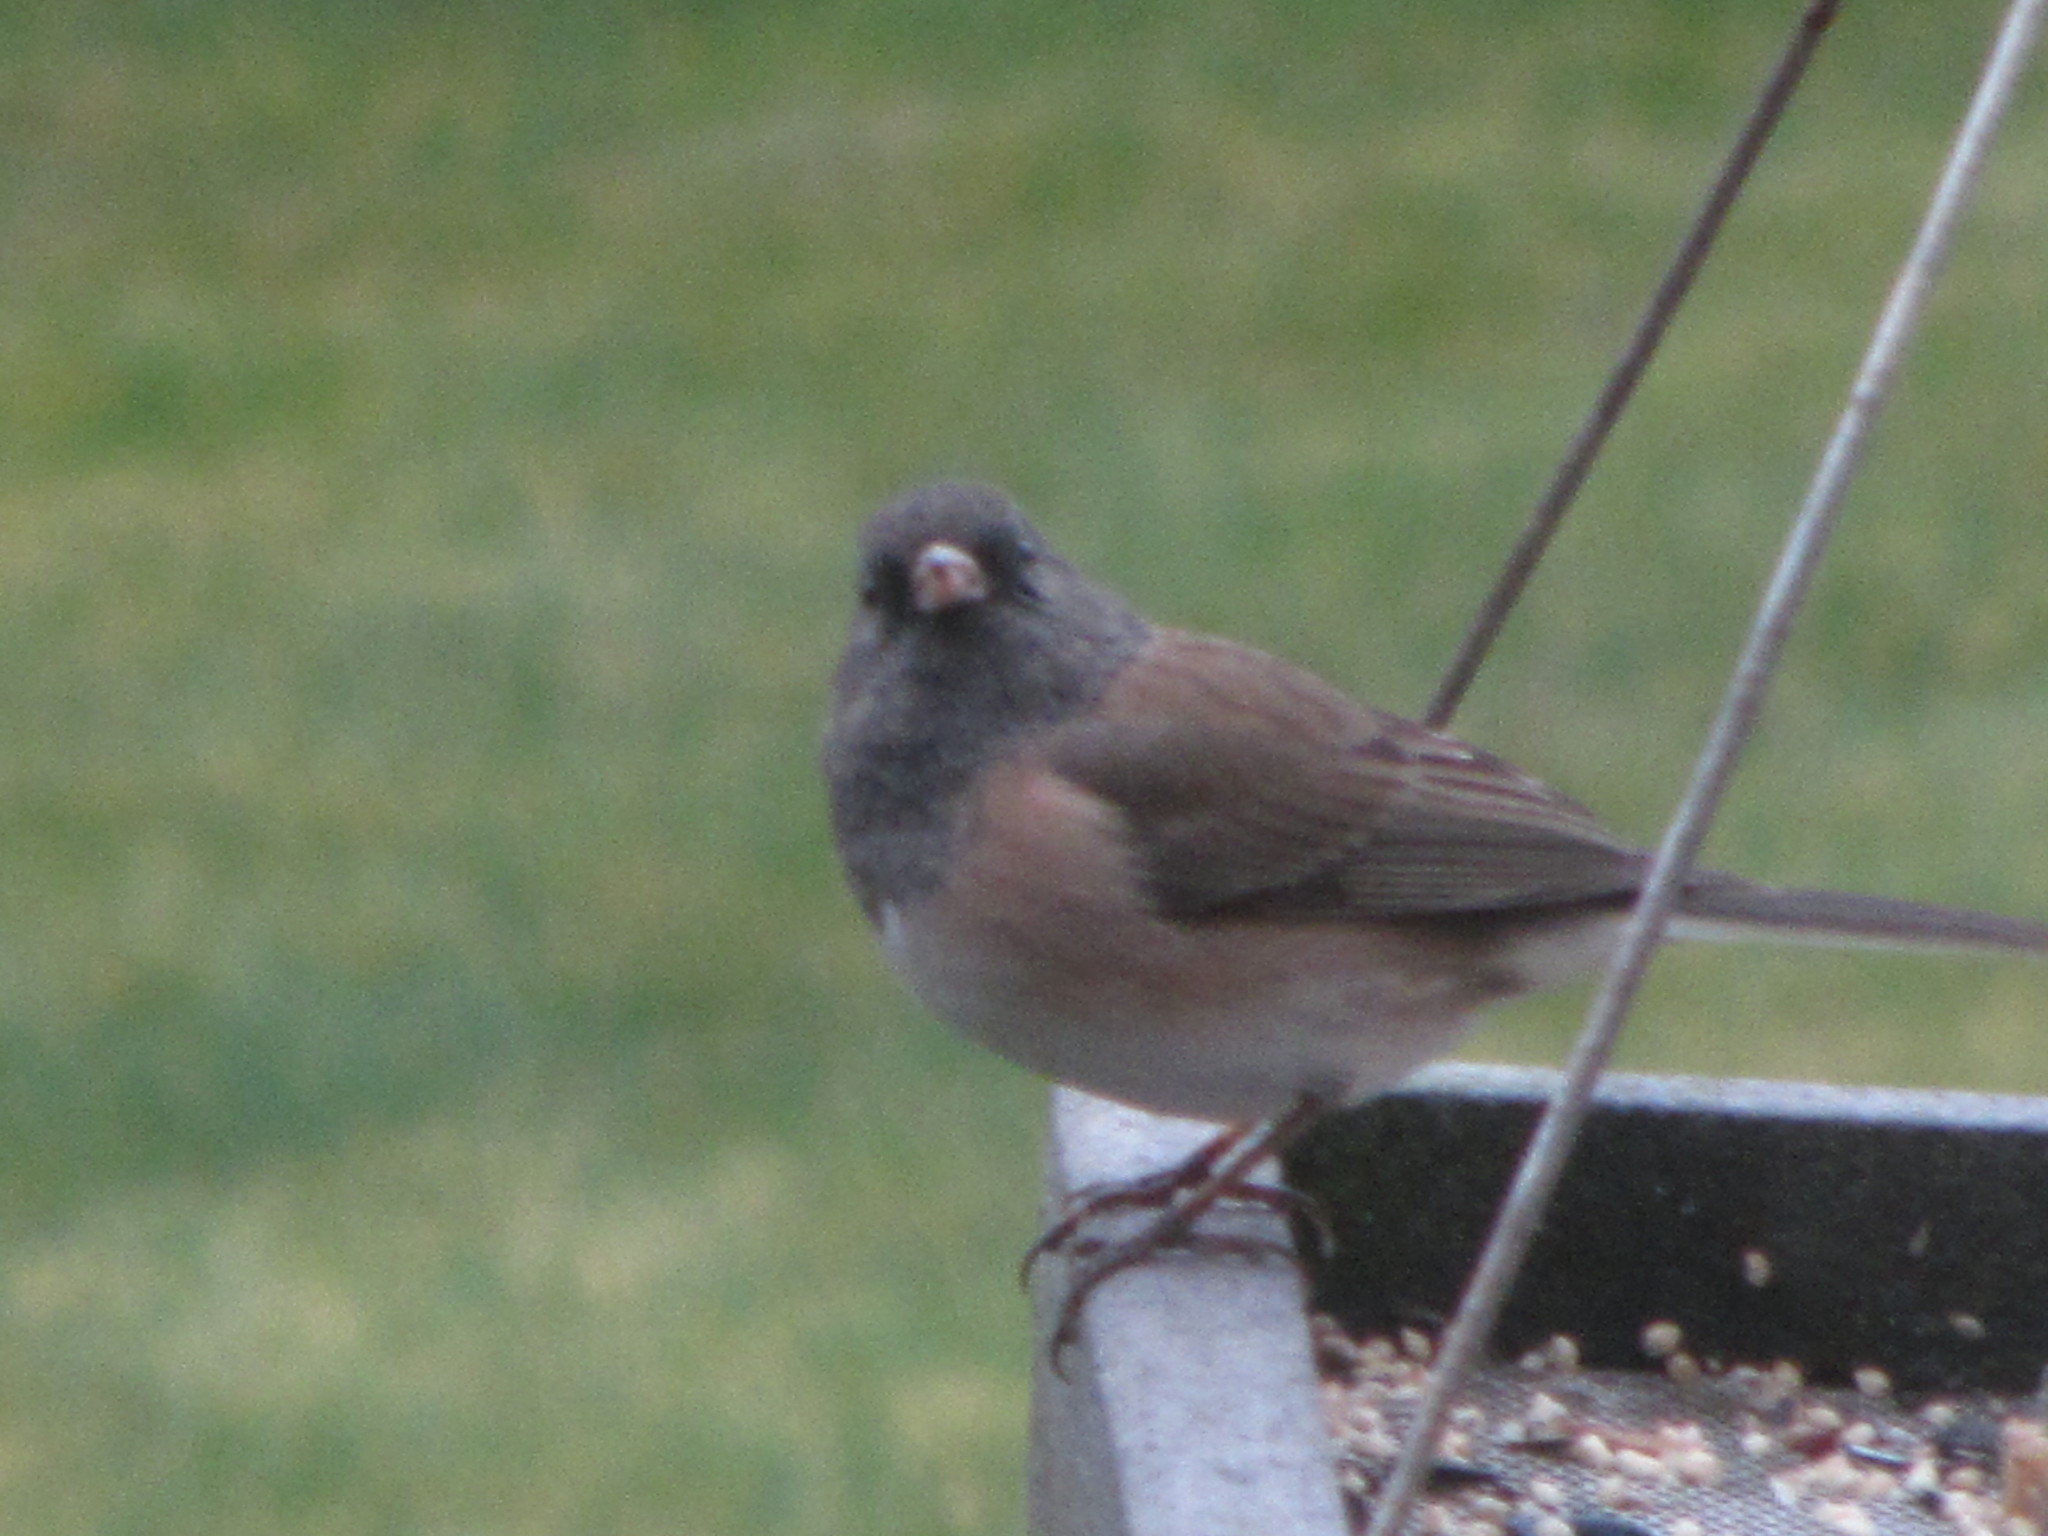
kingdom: Animalia
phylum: Chordata
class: Aves
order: Passeriformes
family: Passerellidae
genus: Junco
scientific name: Junco hyemalis
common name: Dark-eyed junco
